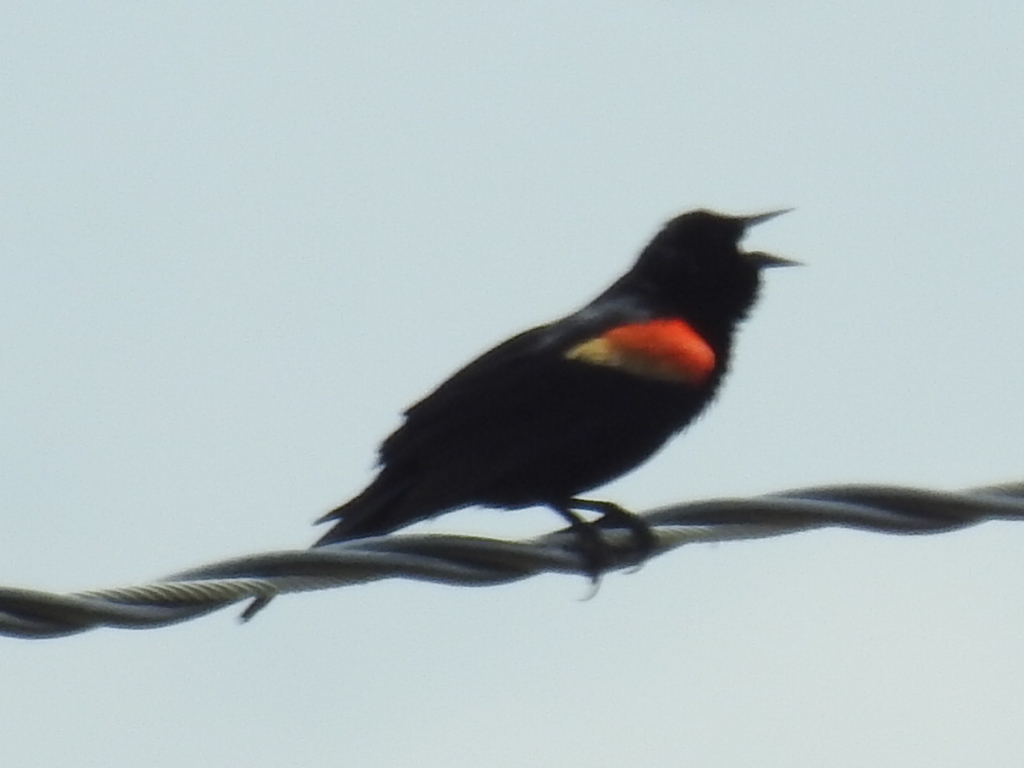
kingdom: Animalia
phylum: Chordata
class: Aves
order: Passeriformes
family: Icteridae
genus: Agelaius
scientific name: Agelaius phoeniceus
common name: Red-winged blackbird
